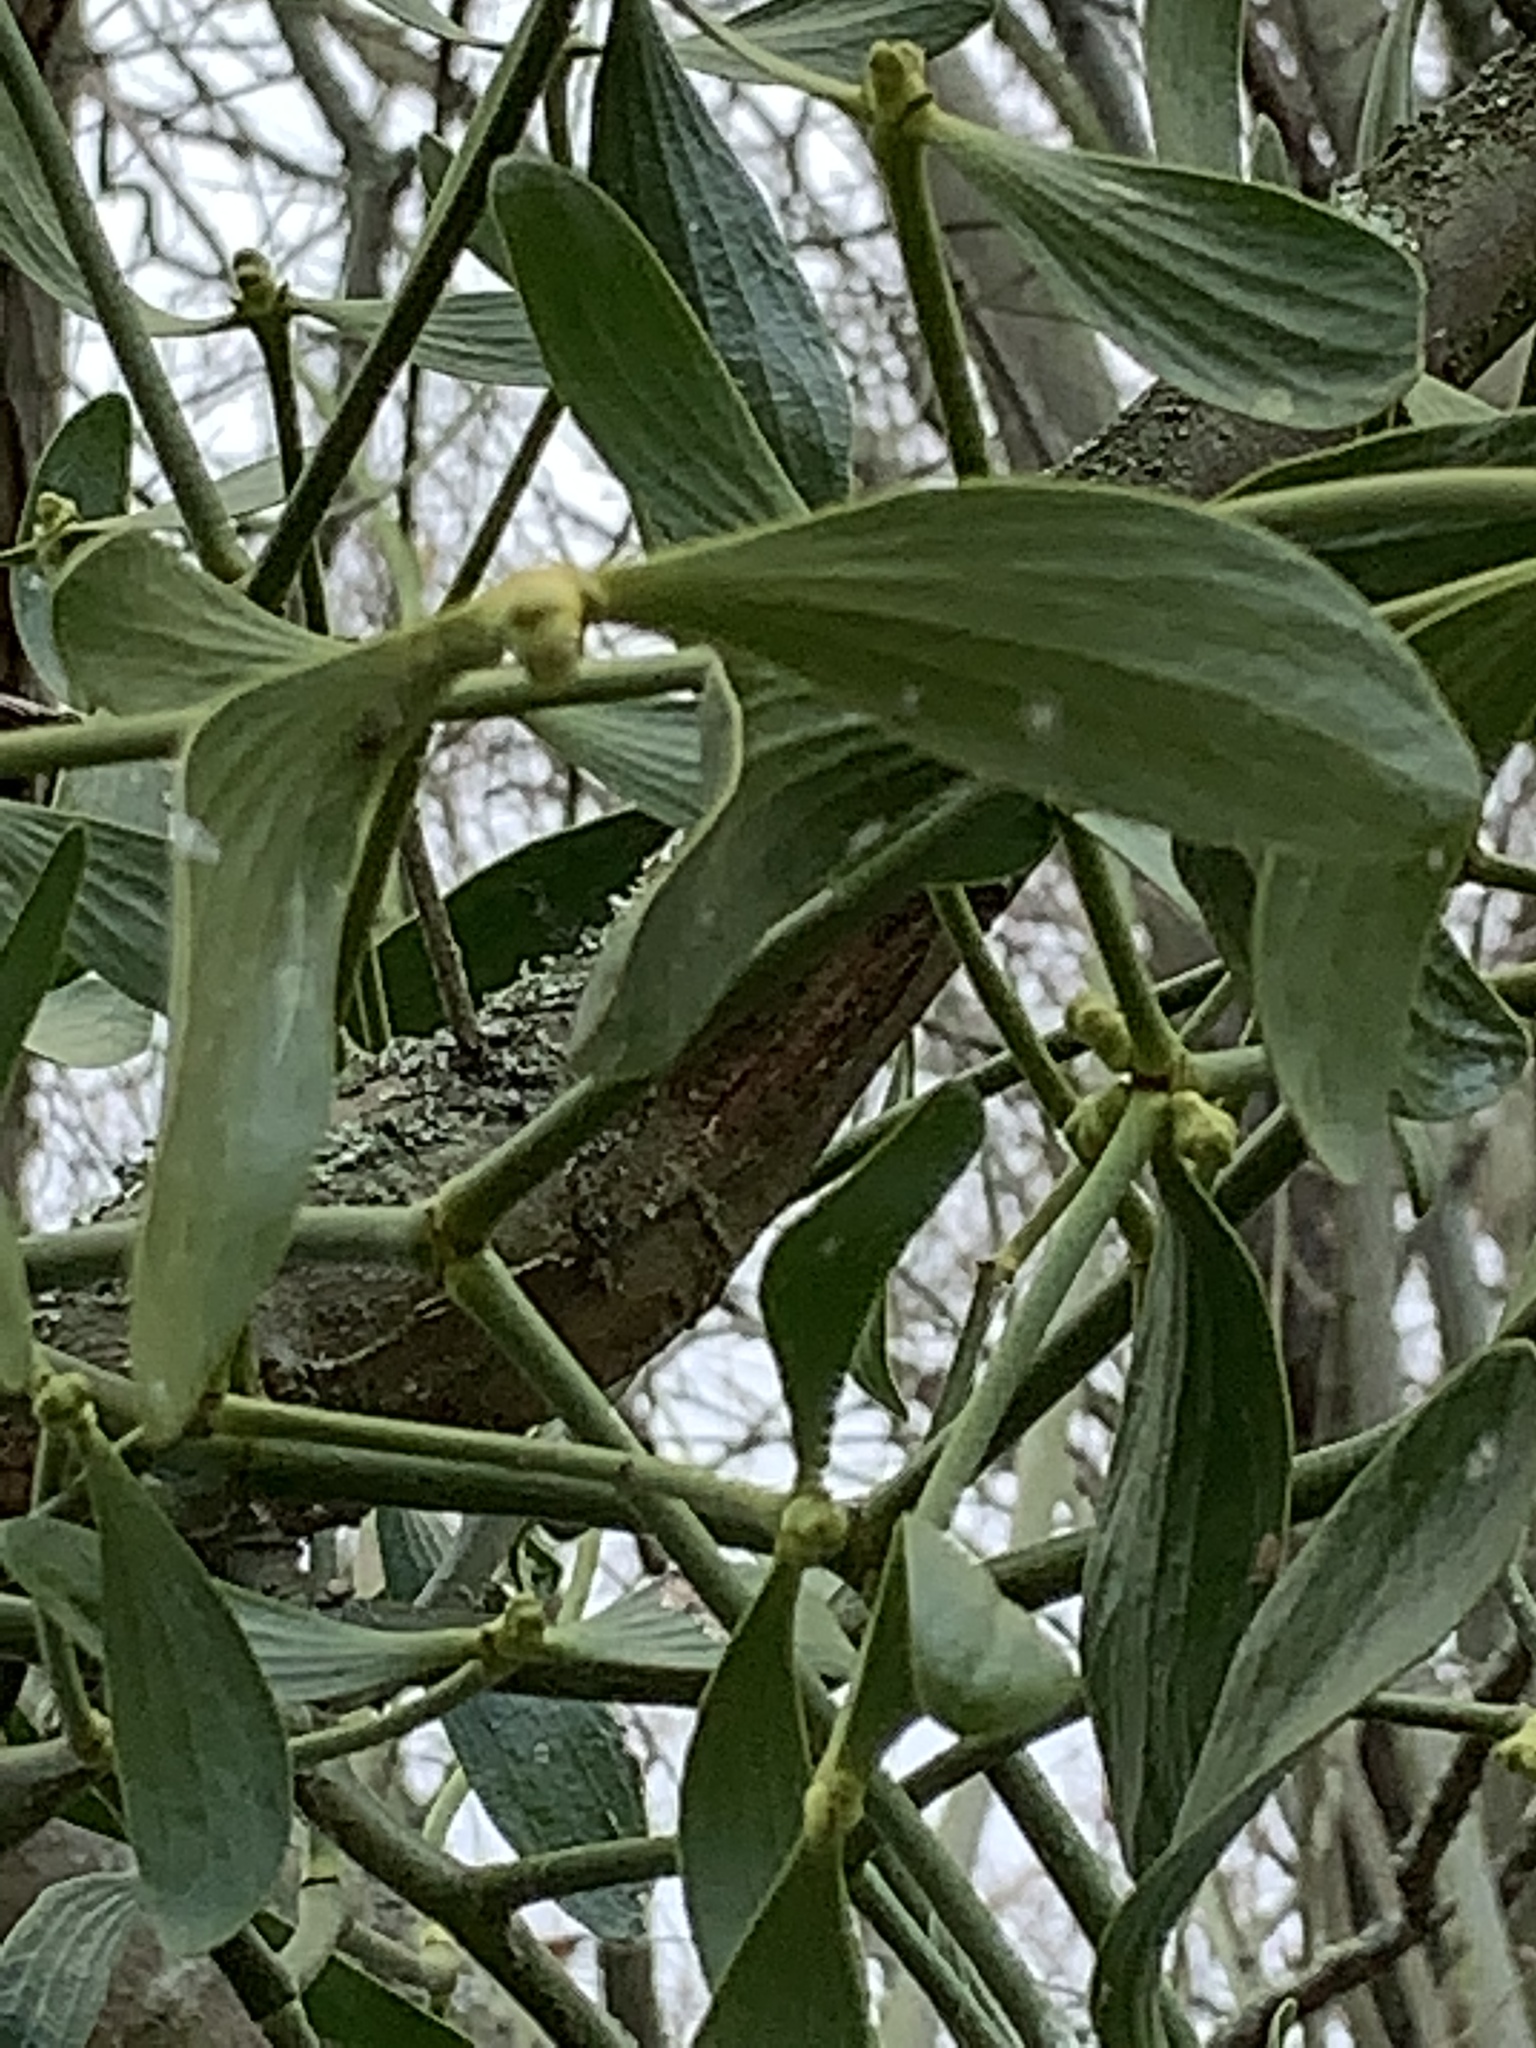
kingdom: Plantae
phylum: Tracheophyta
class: Magnoliopsida
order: Santalales
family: Viscaceae
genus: Viscum
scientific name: Viscum album
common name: Mistletoe
